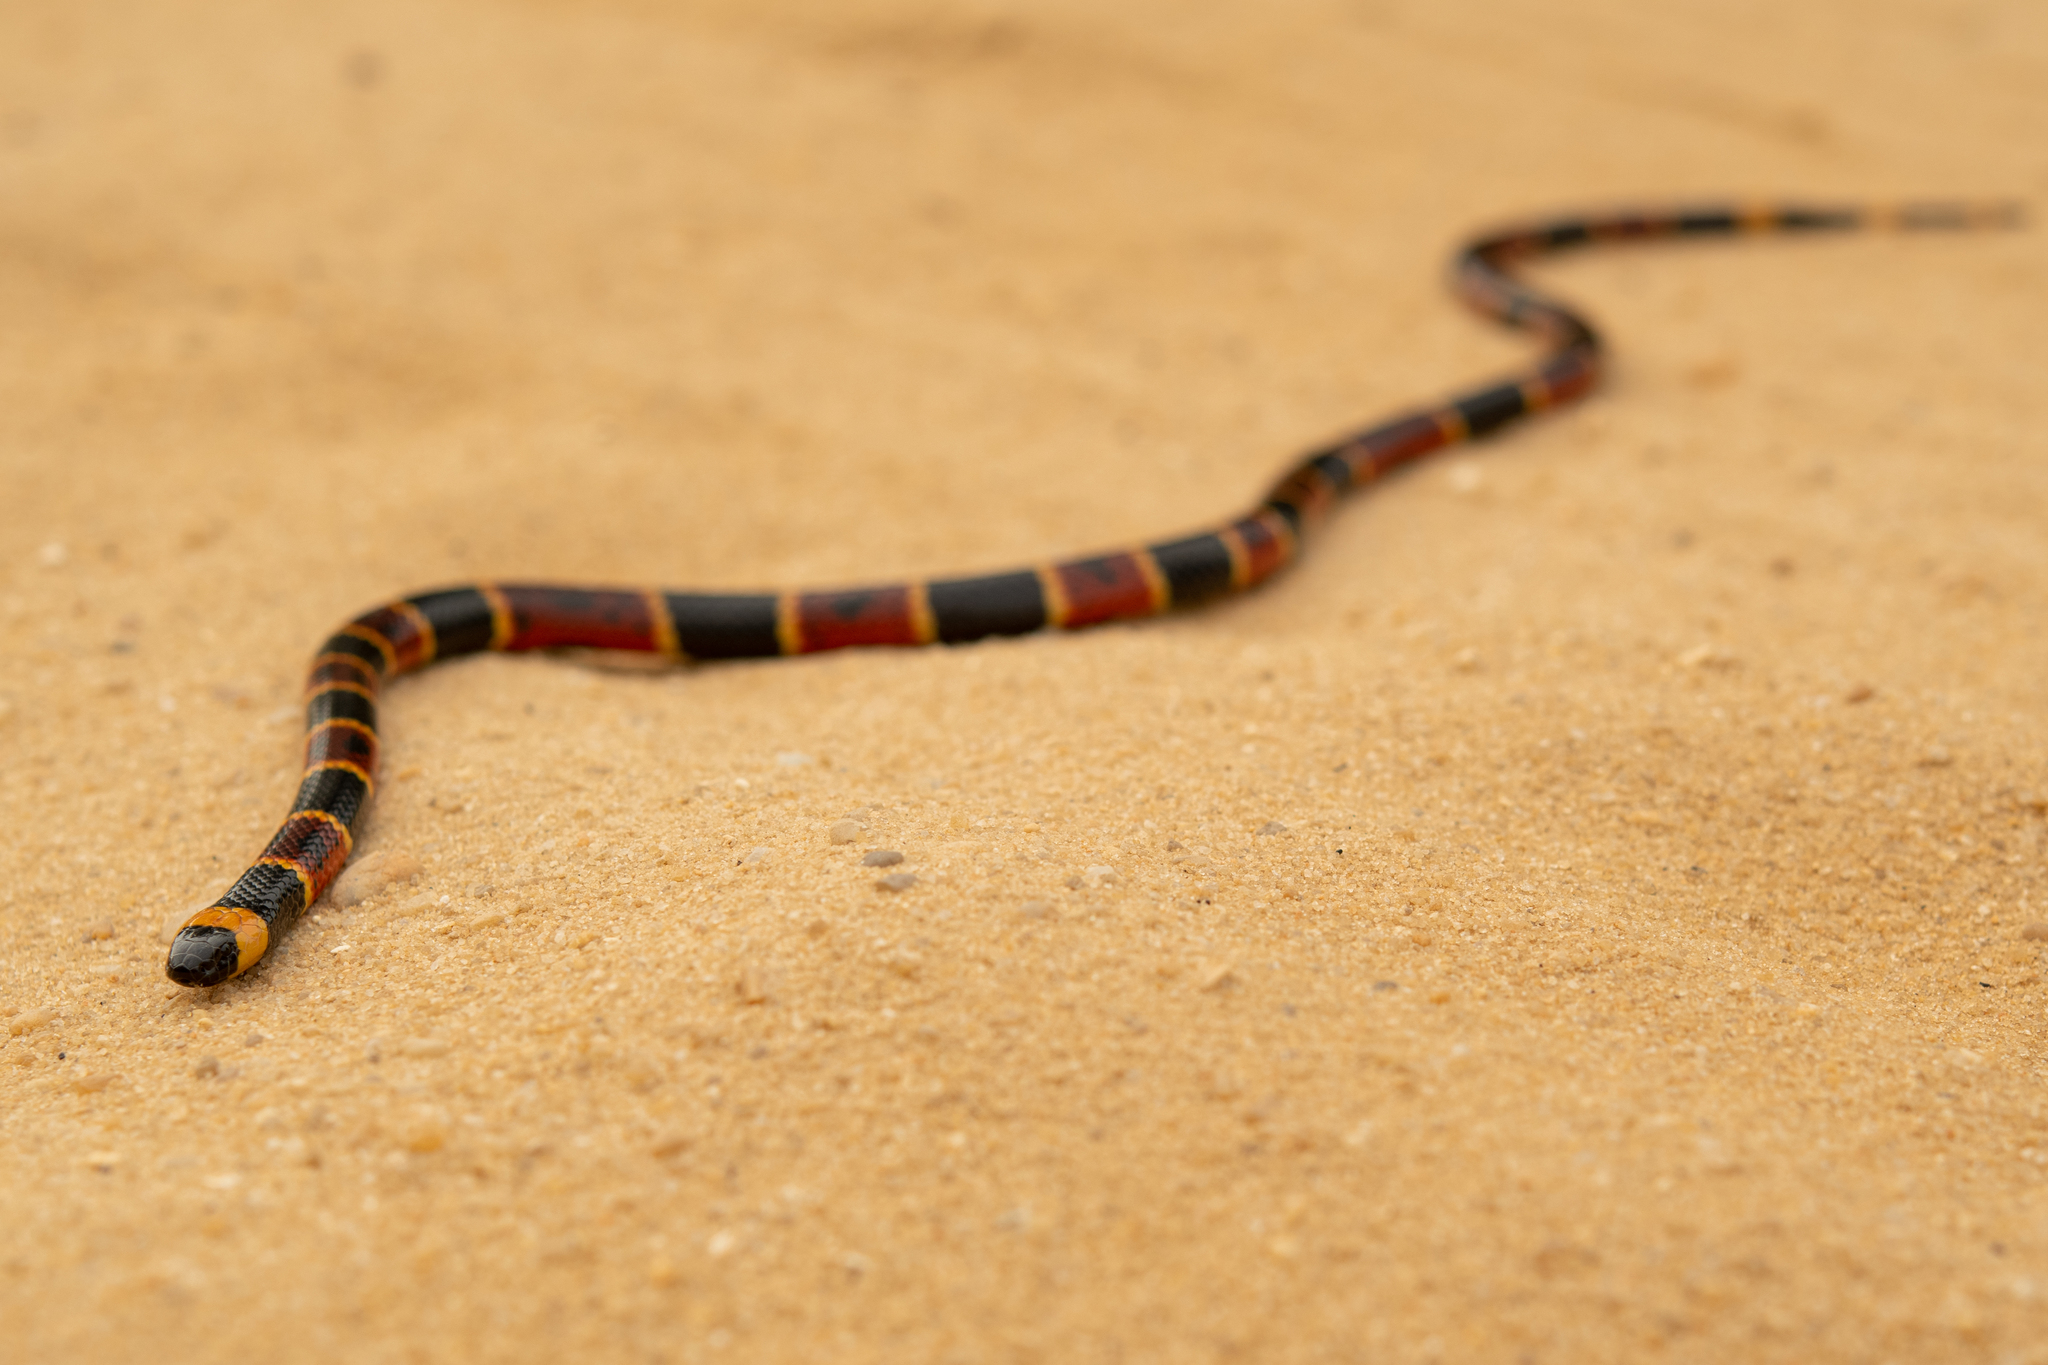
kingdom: Animalia
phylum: Chordata
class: Squamata
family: Elapidae
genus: Micrurus
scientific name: Micrurus fulvius
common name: Eastern coral snake
